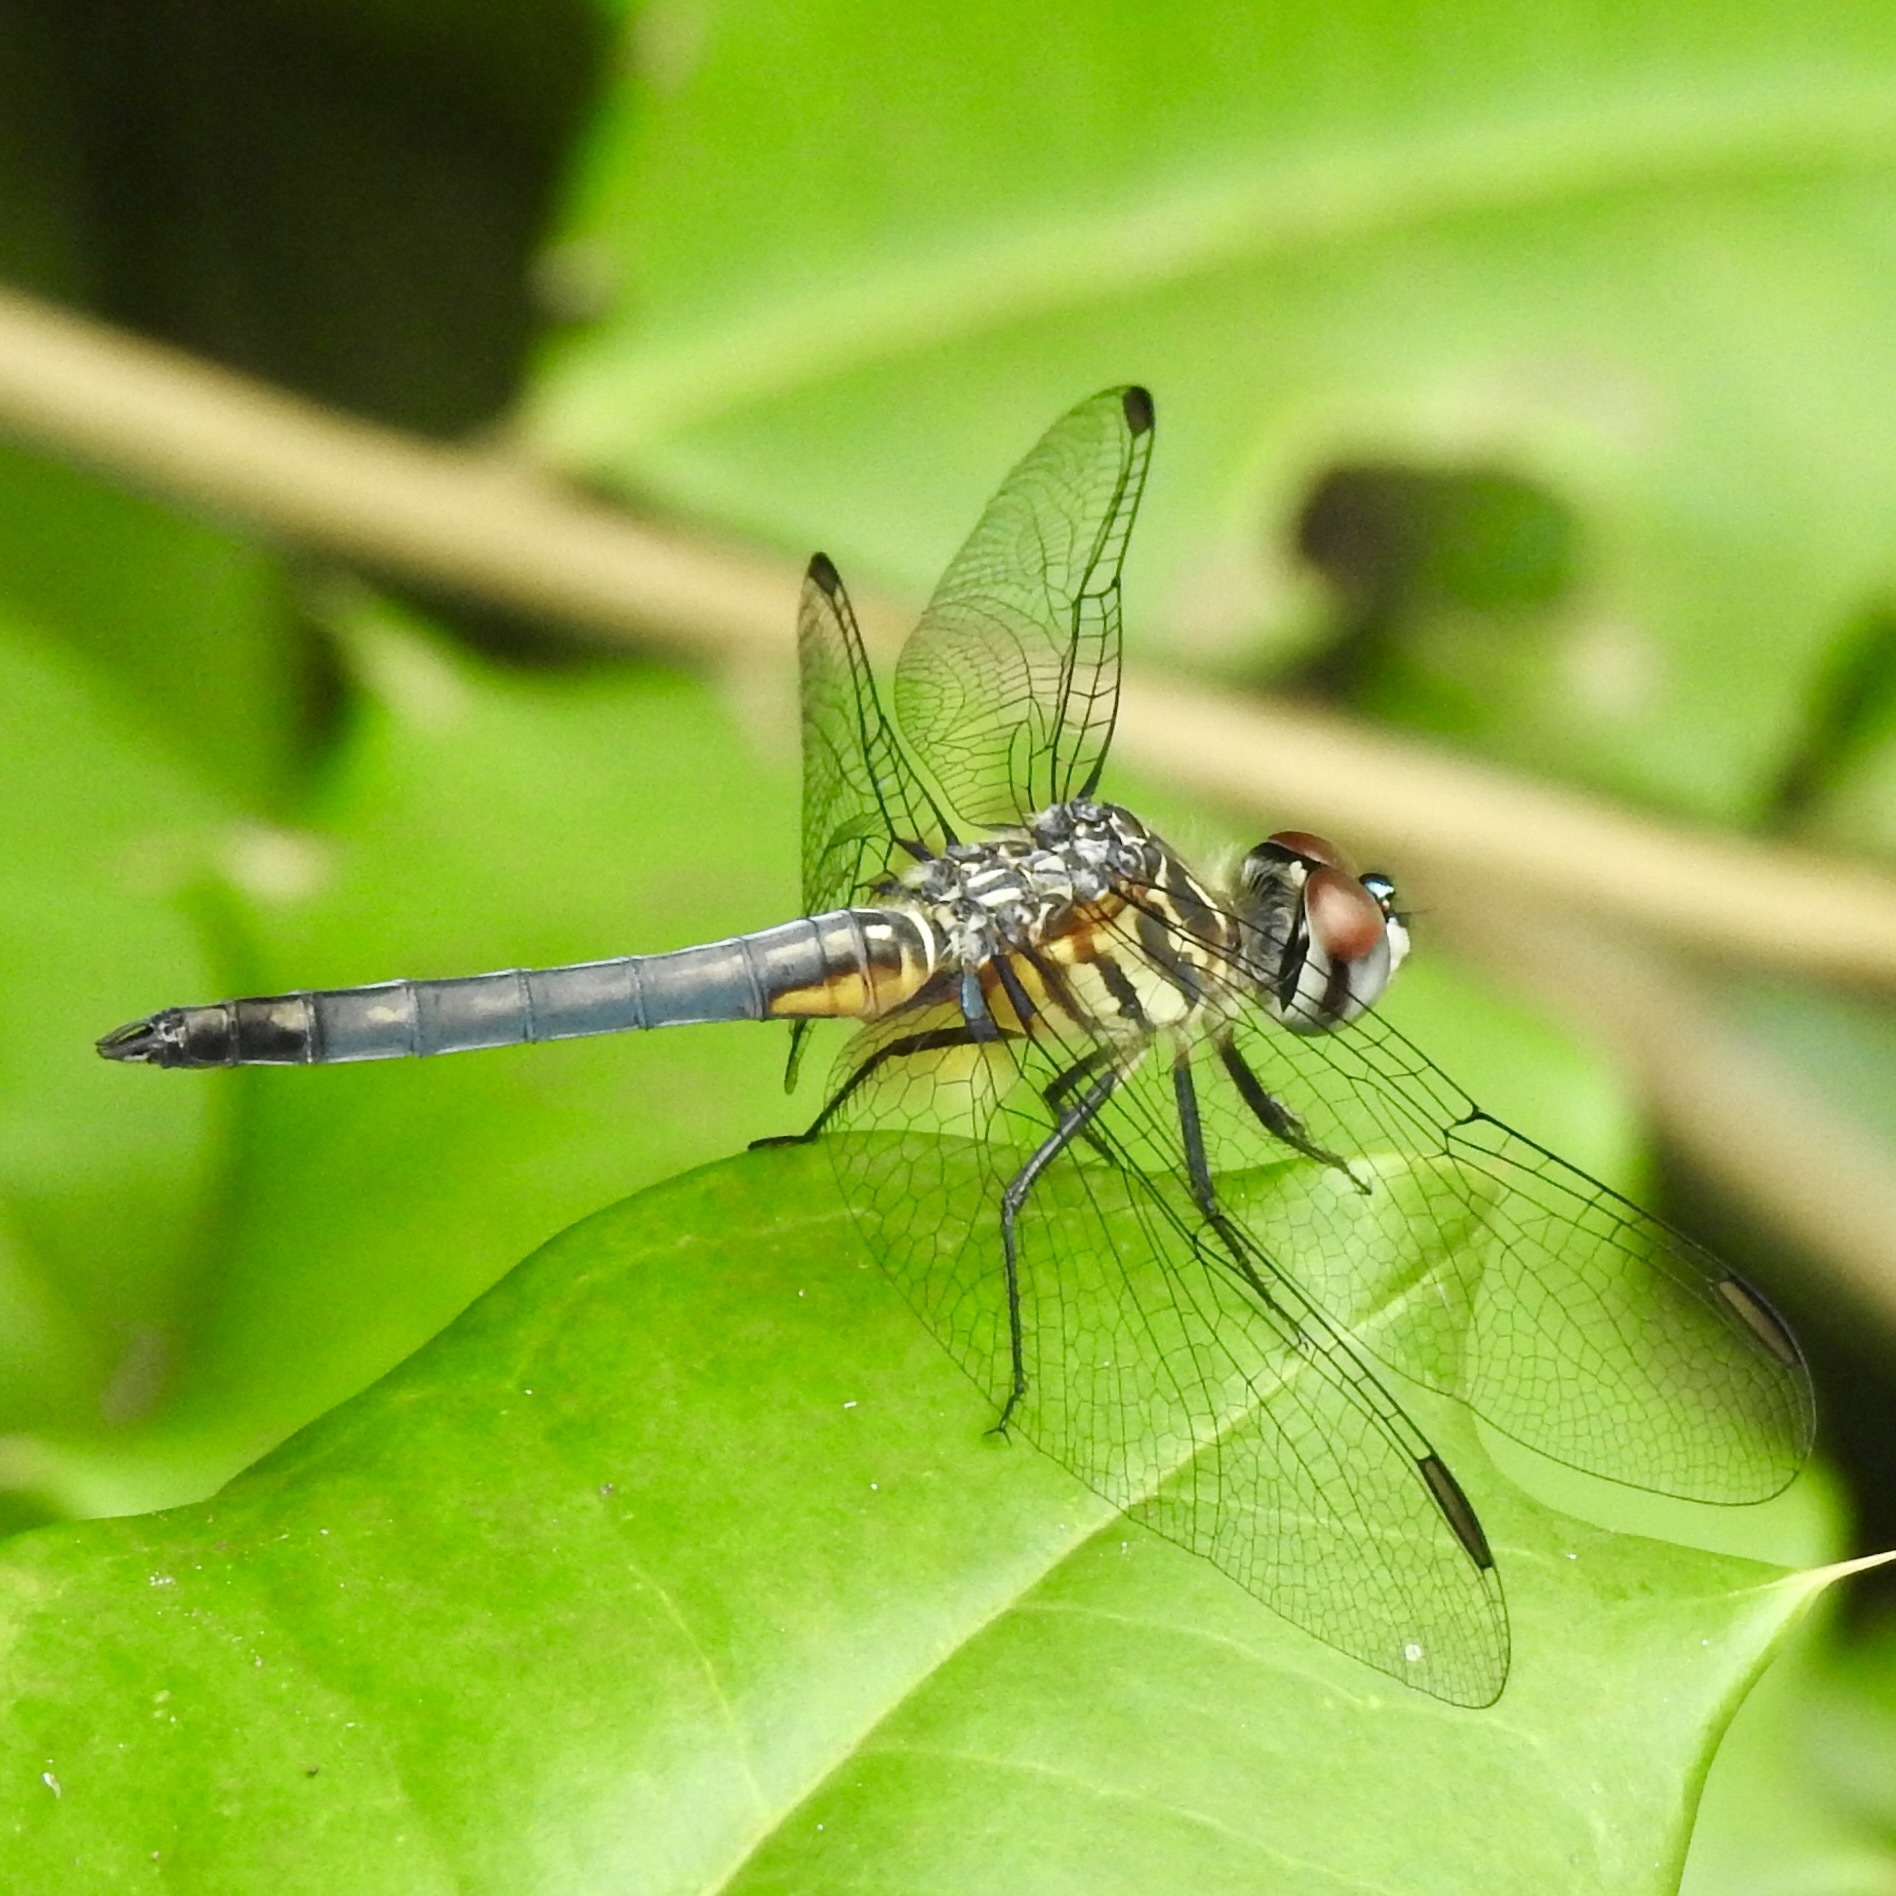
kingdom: Animalia
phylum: Arthropoda
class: Insecta
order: Odonata
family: Libellulidae
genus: Pachydiplax
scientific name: Pachydiplax longipennis
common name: Blue dasher
